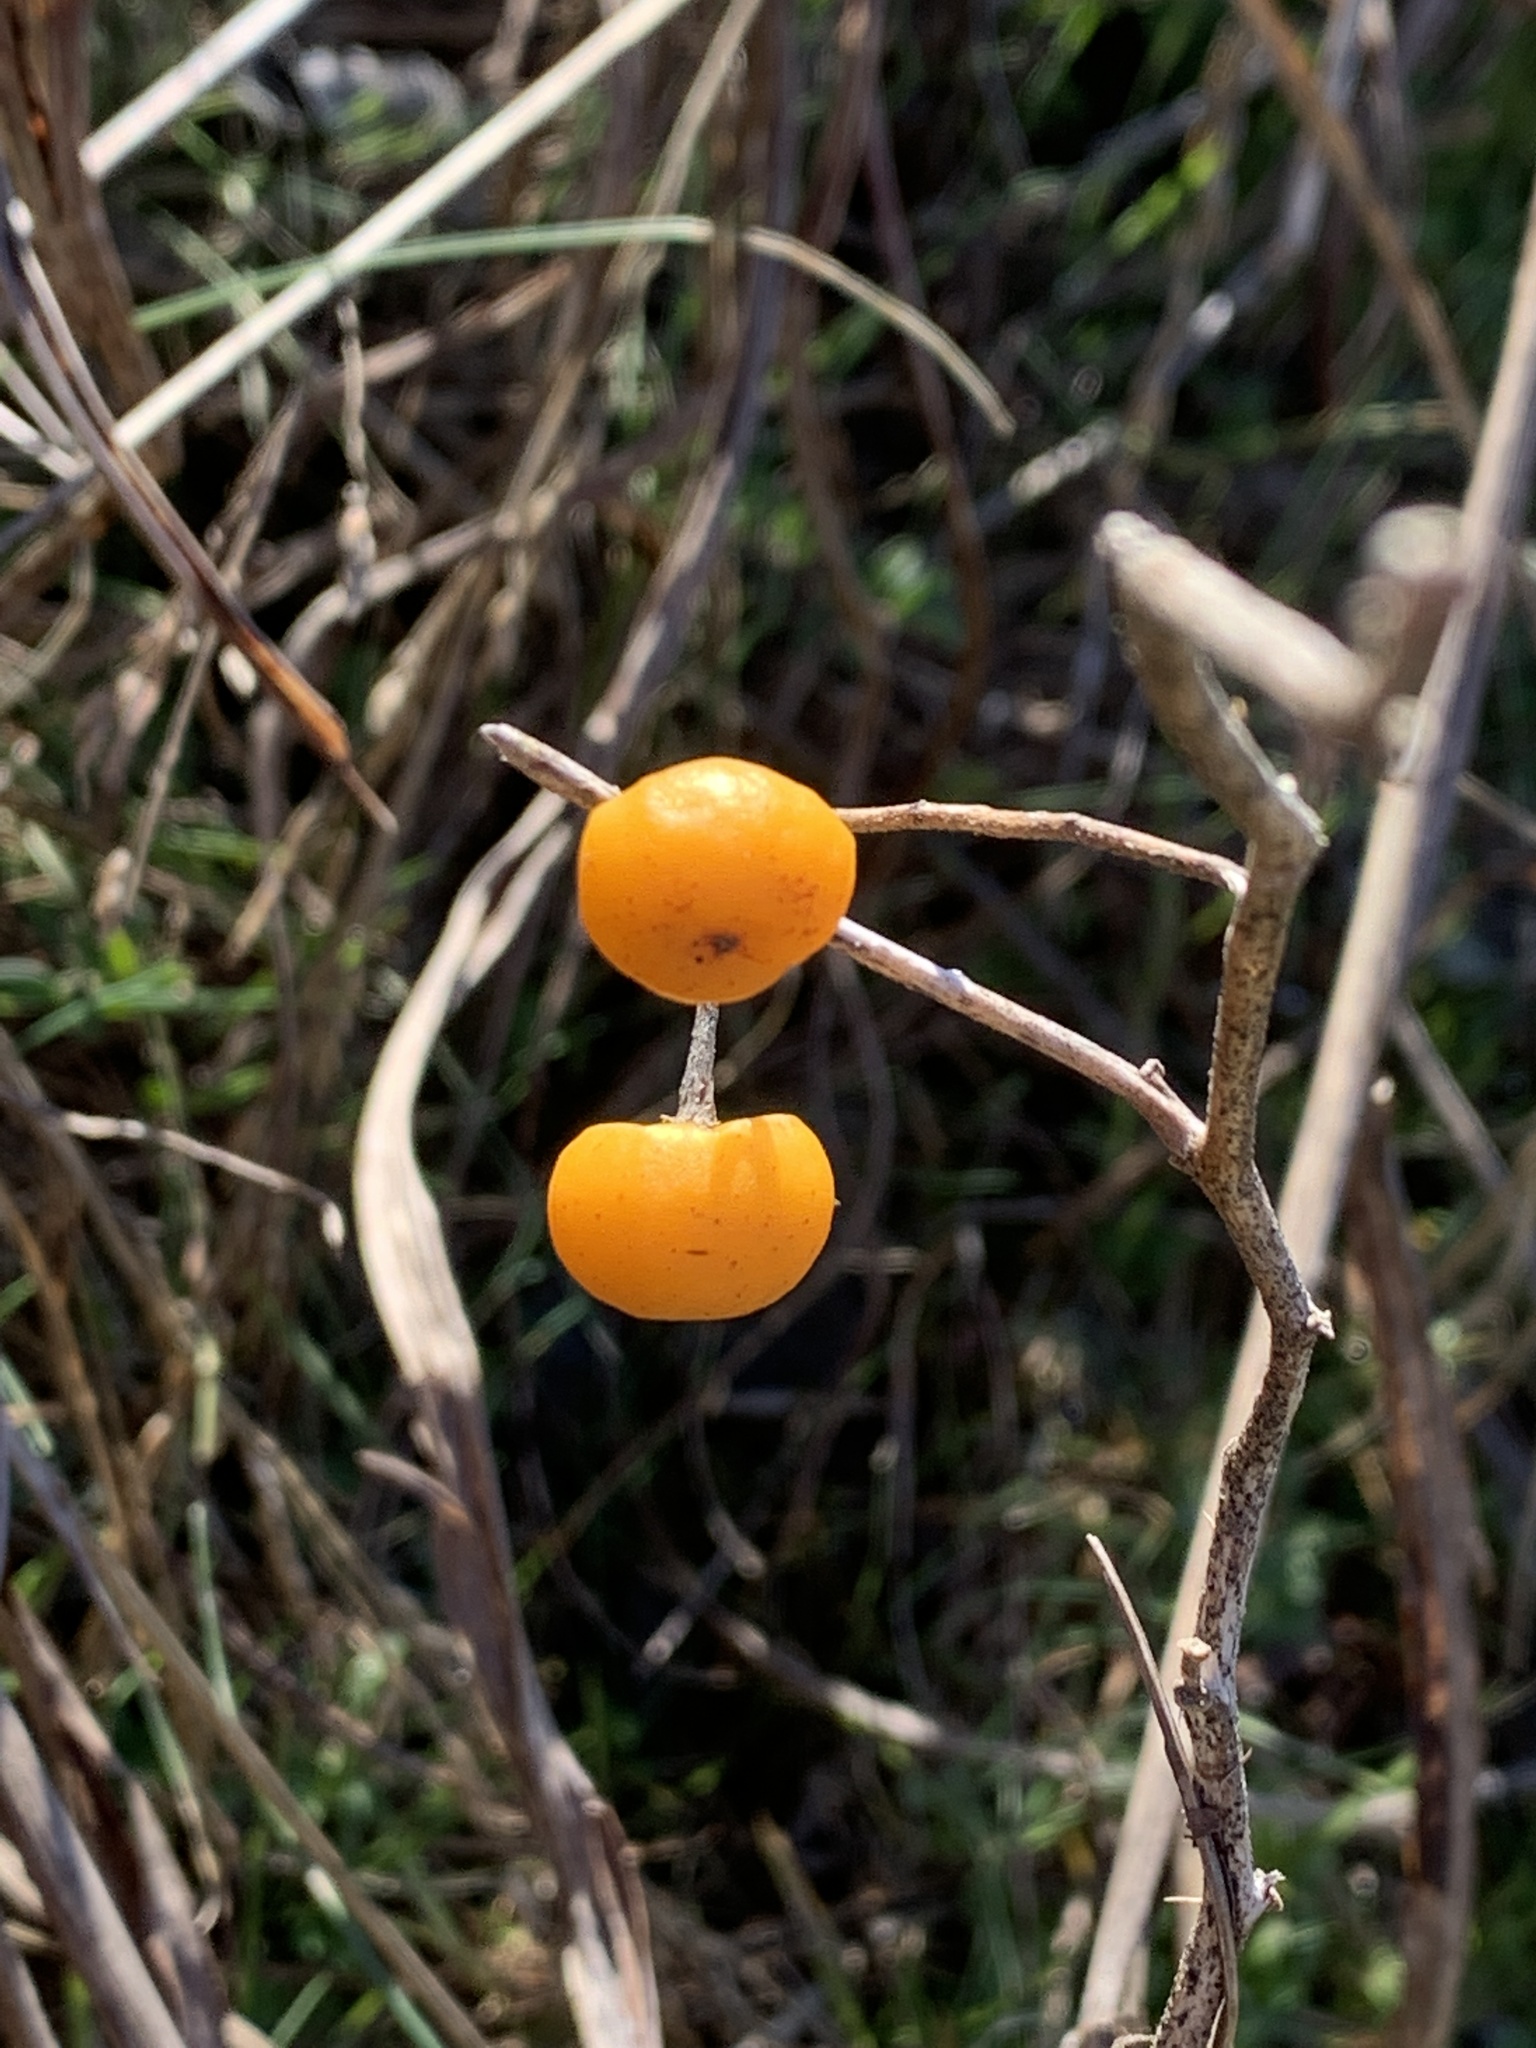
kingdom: Plantae
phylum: Tracheophyta
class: Magnoliopsida
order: Solanales
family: Solanaceae
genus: Solanum
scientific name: Solanum carolinense
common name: Horse-nettle
